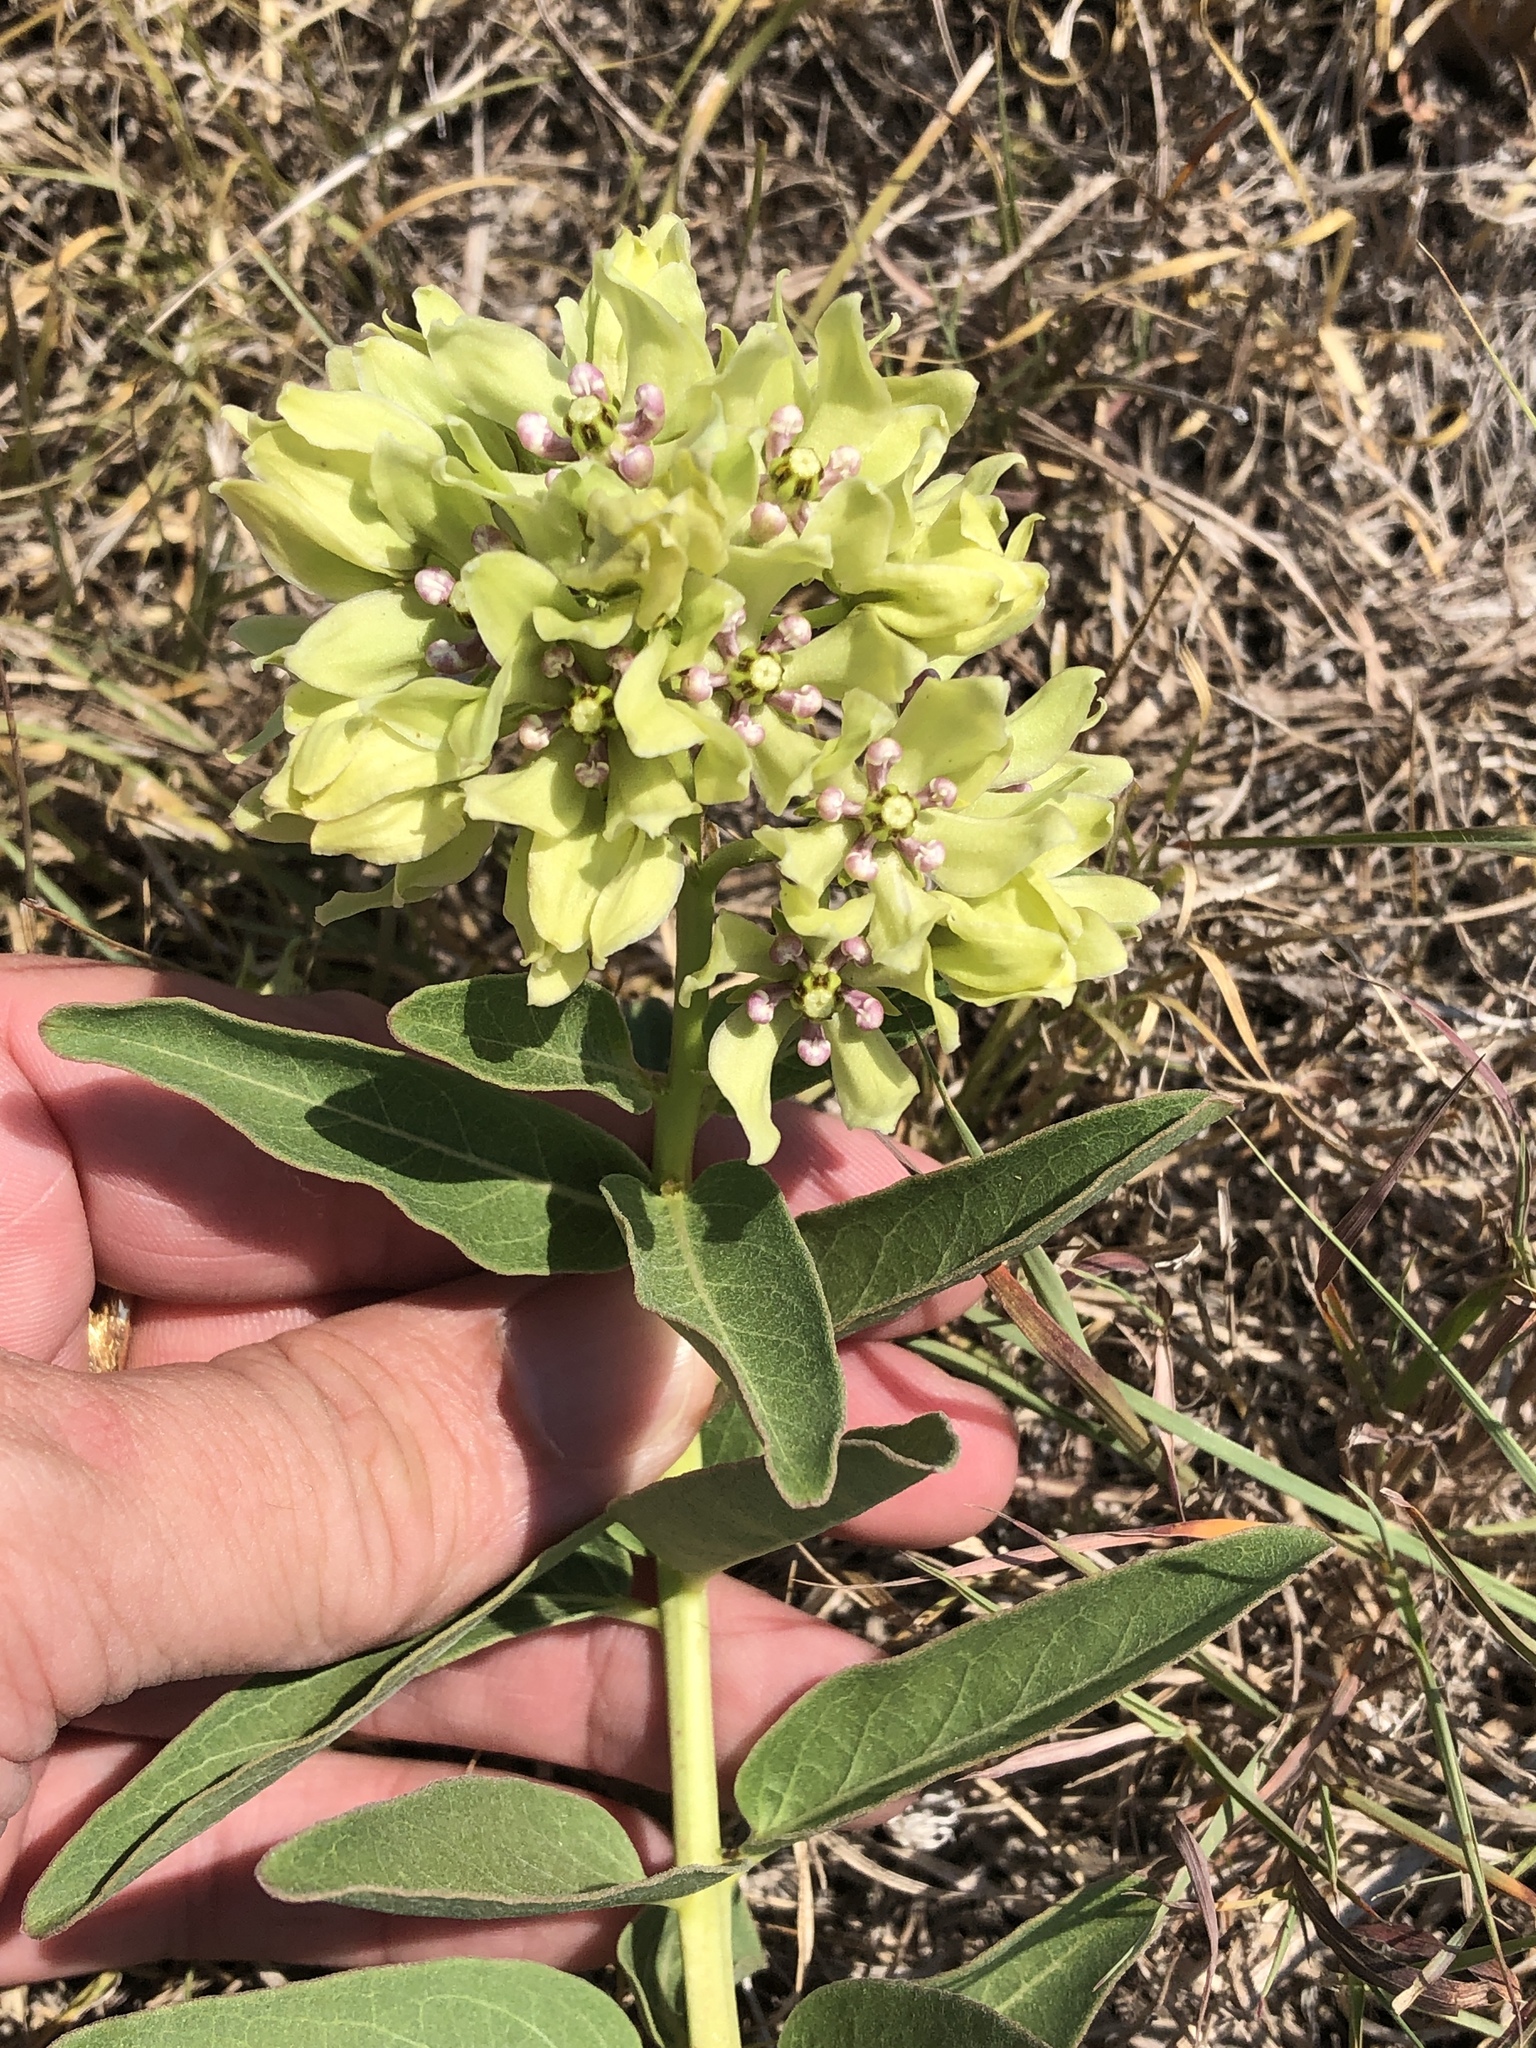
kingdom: Plantae
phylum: Tracheophyta
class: Magnoliopsida
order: Gentianales
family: Apocynaceae
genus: Asclepias
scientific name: Asclepias viridis
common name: Antelope-horns
